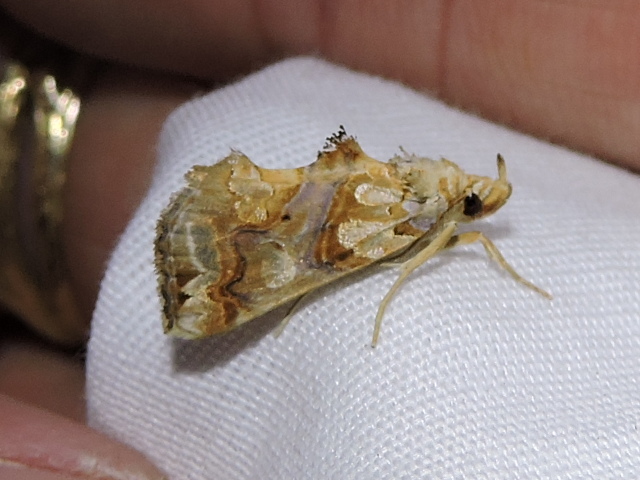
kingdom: Animalia
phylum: Arthropoda
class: Insecta
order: Lepidoptera
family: Erebidae
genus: Plusiodonta
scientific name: Plusiodonta compressipalpis
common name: Moonseed moth
